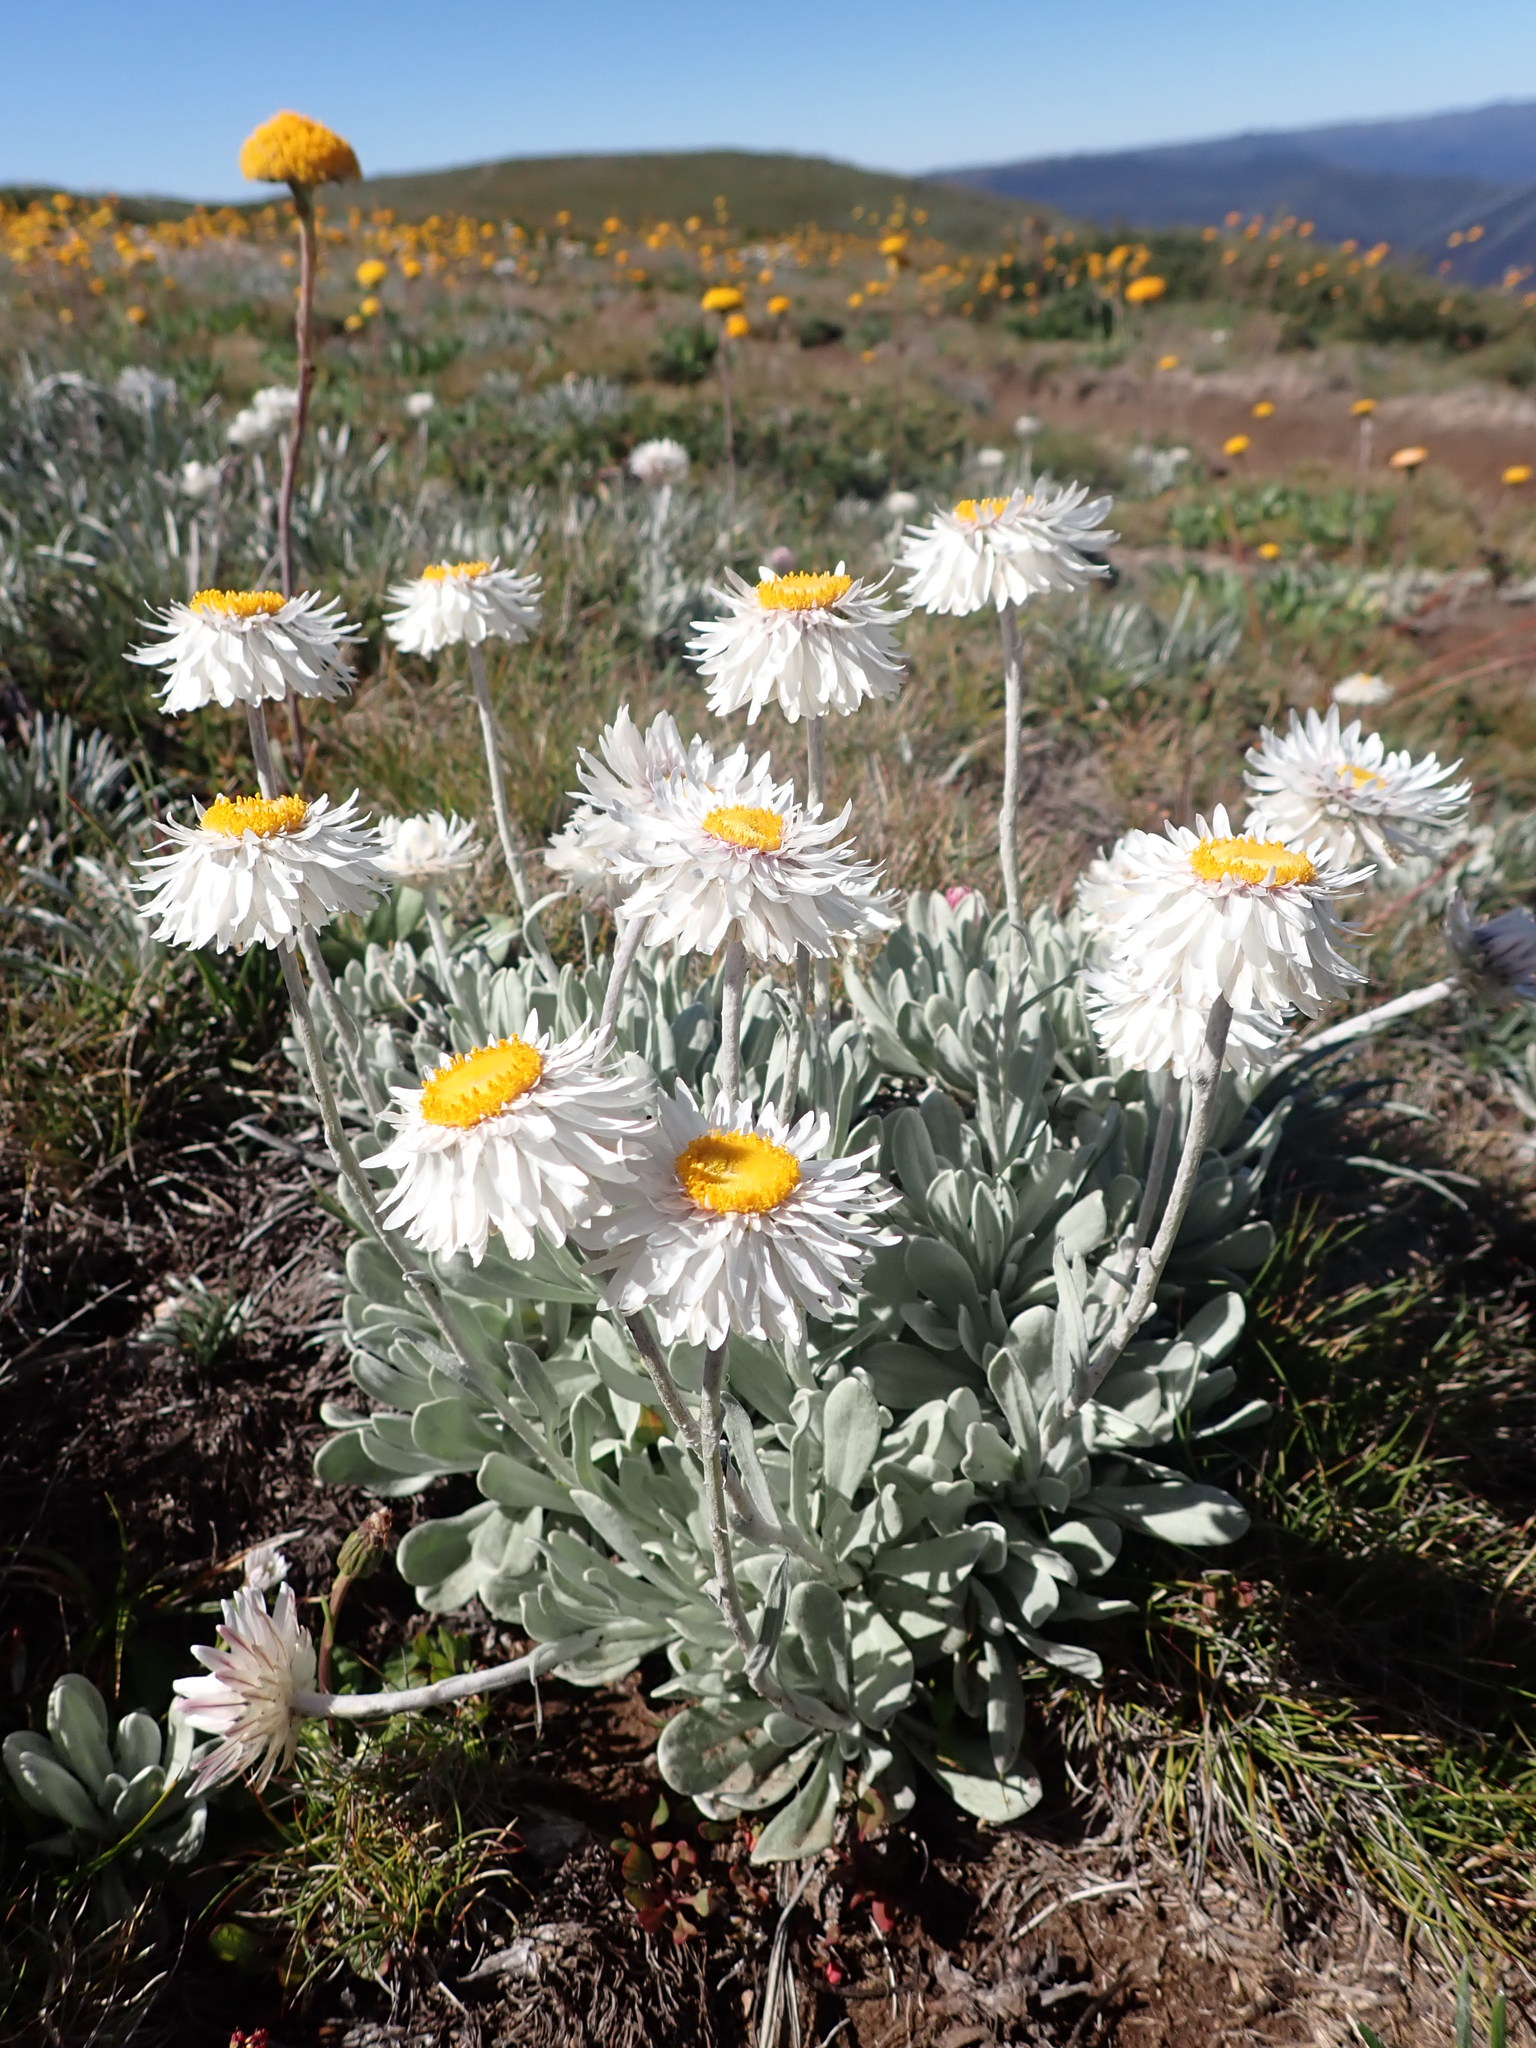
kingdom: Plantae
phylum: Tracheophyta
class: Magnoliopsida
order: Asterales
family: Asteraceae
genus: Leucochrysum
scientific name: Leucochrysum alpinum
